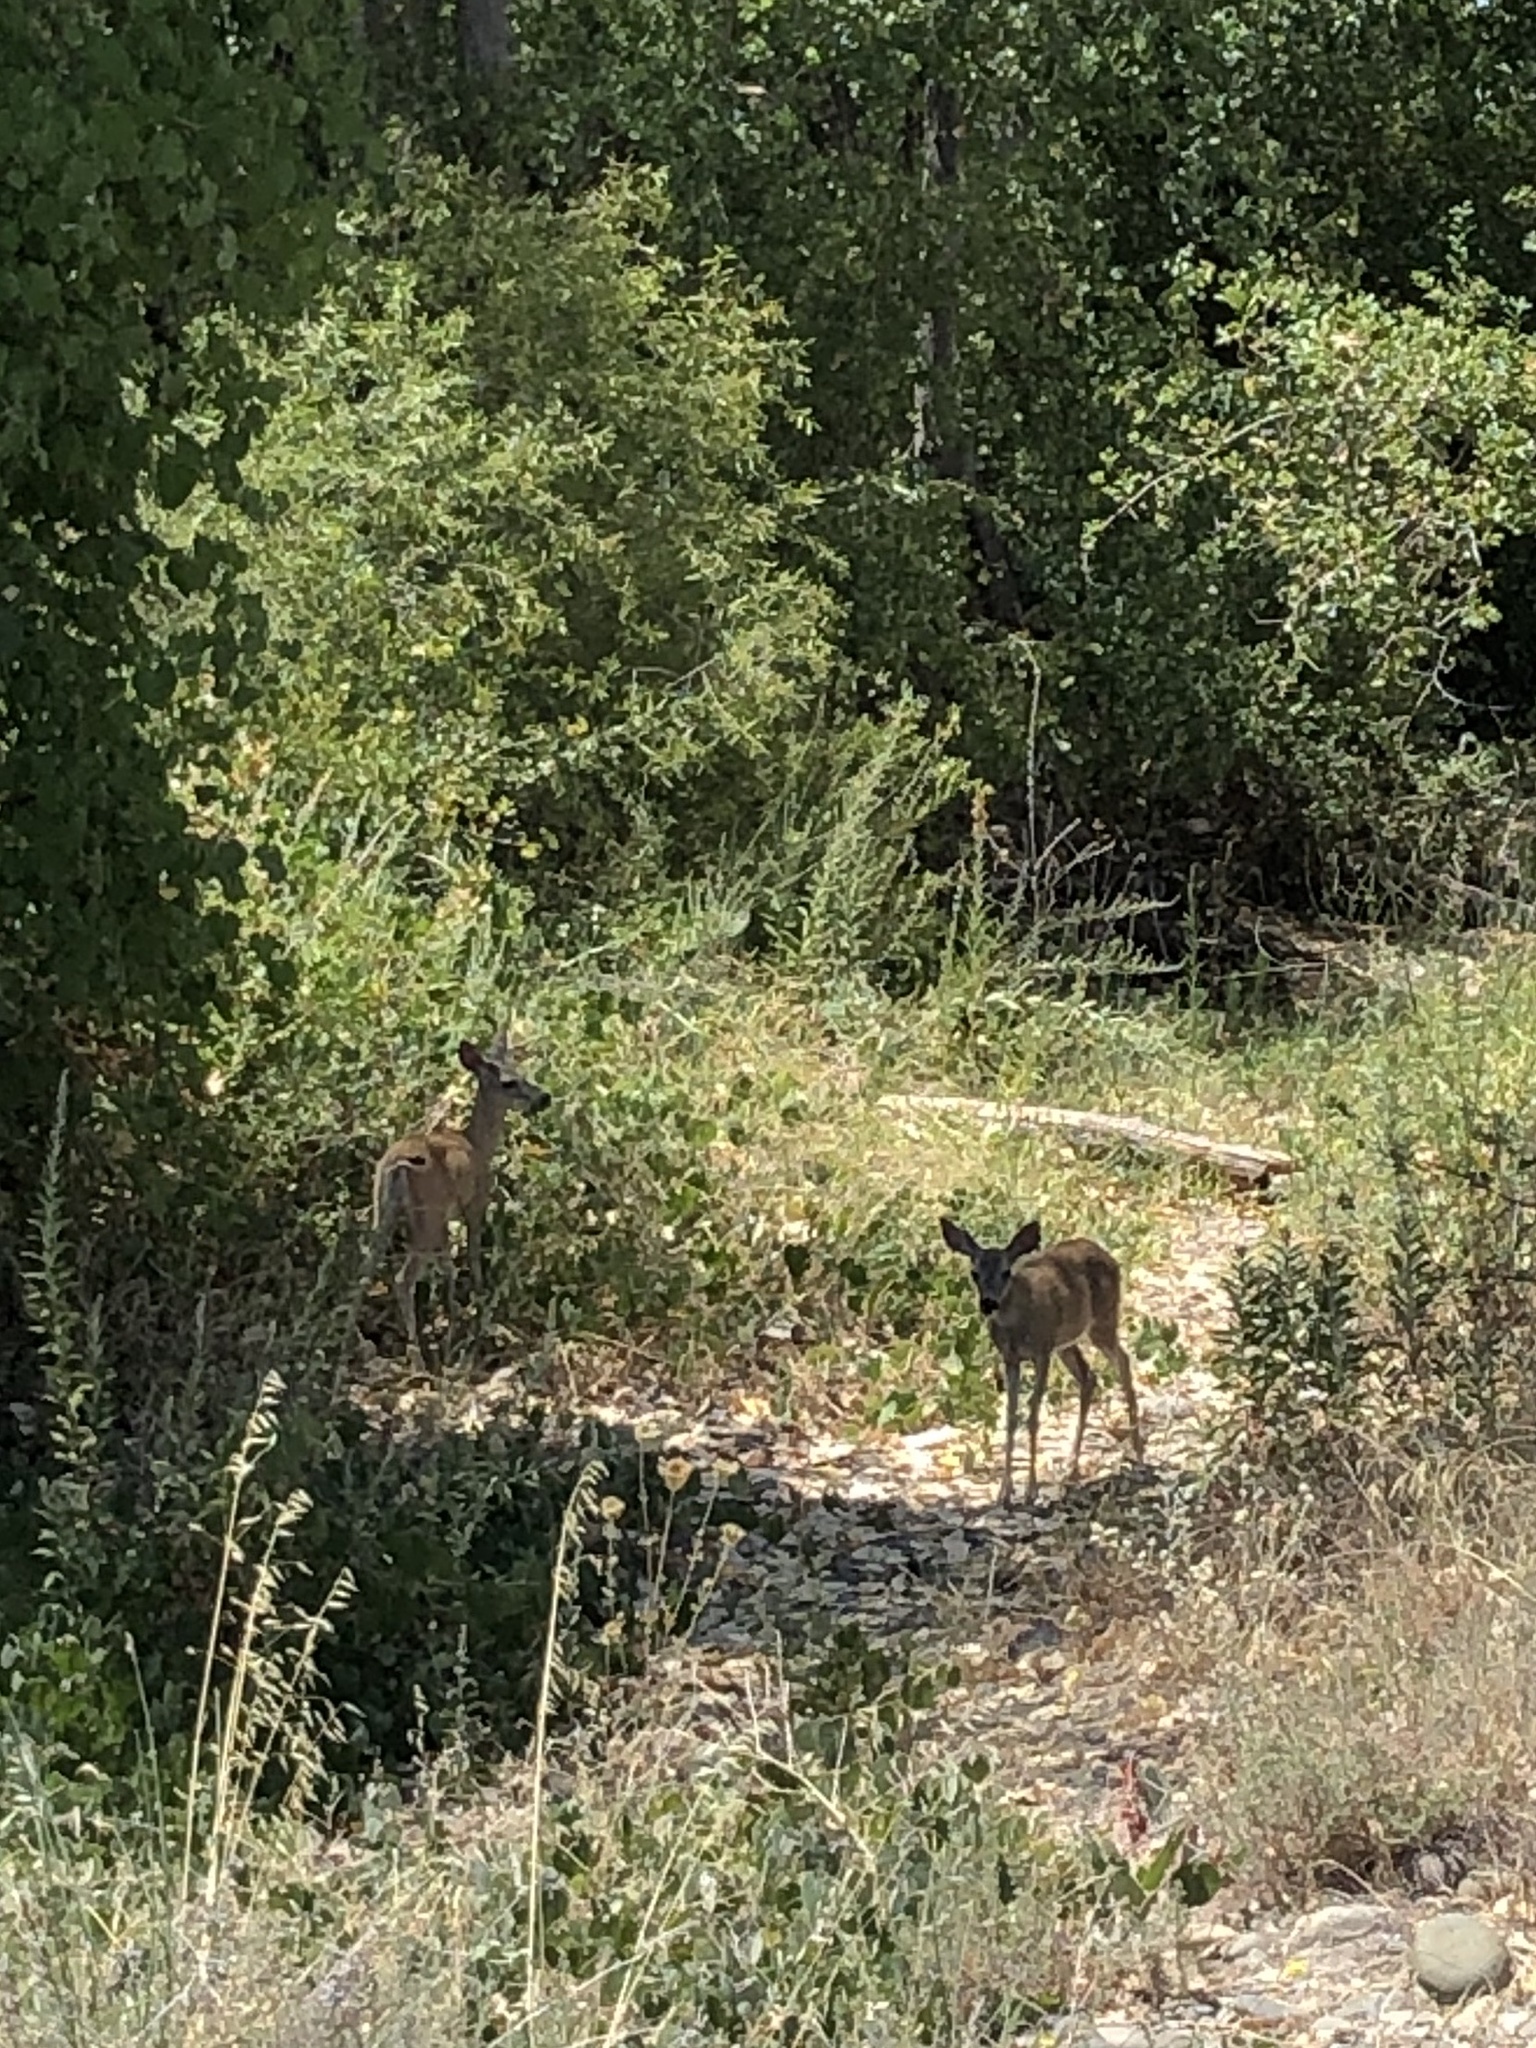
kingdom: Animalia
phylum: Chordata
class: Mammalia
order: Artiodactyla
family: Cervidae
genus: Odocoileus
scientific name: Odocoileus hemionus
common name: Mule deer
